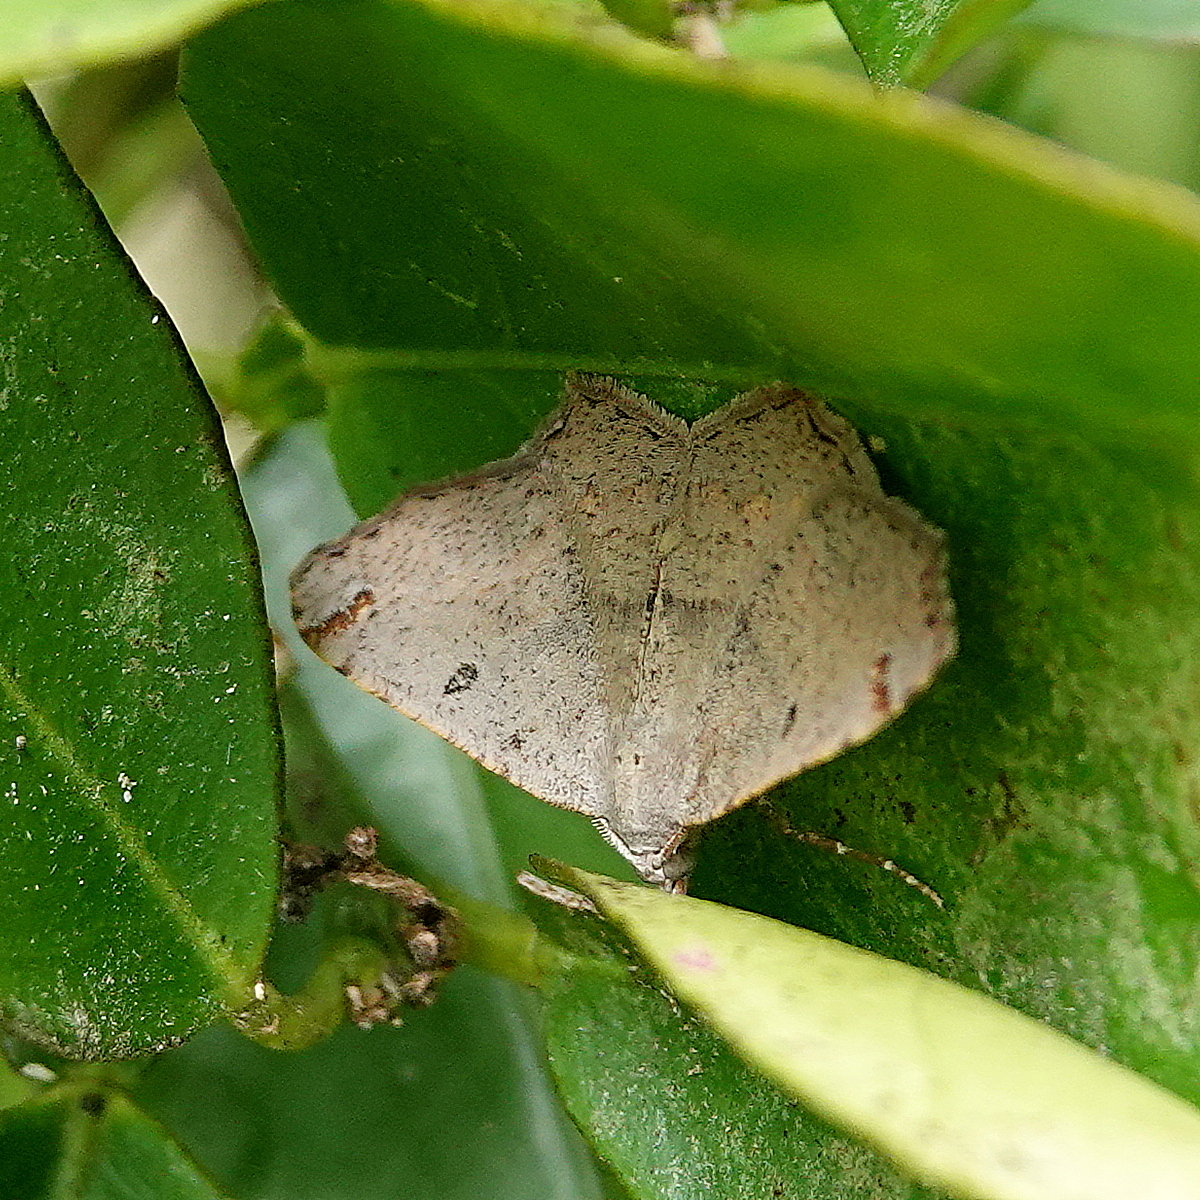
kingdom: Animalia
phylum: Arthropoda
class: Insecta
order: Lepidoptera
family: Geometridae
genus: Dissomorphia
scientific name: Dissomorphia australiaria
